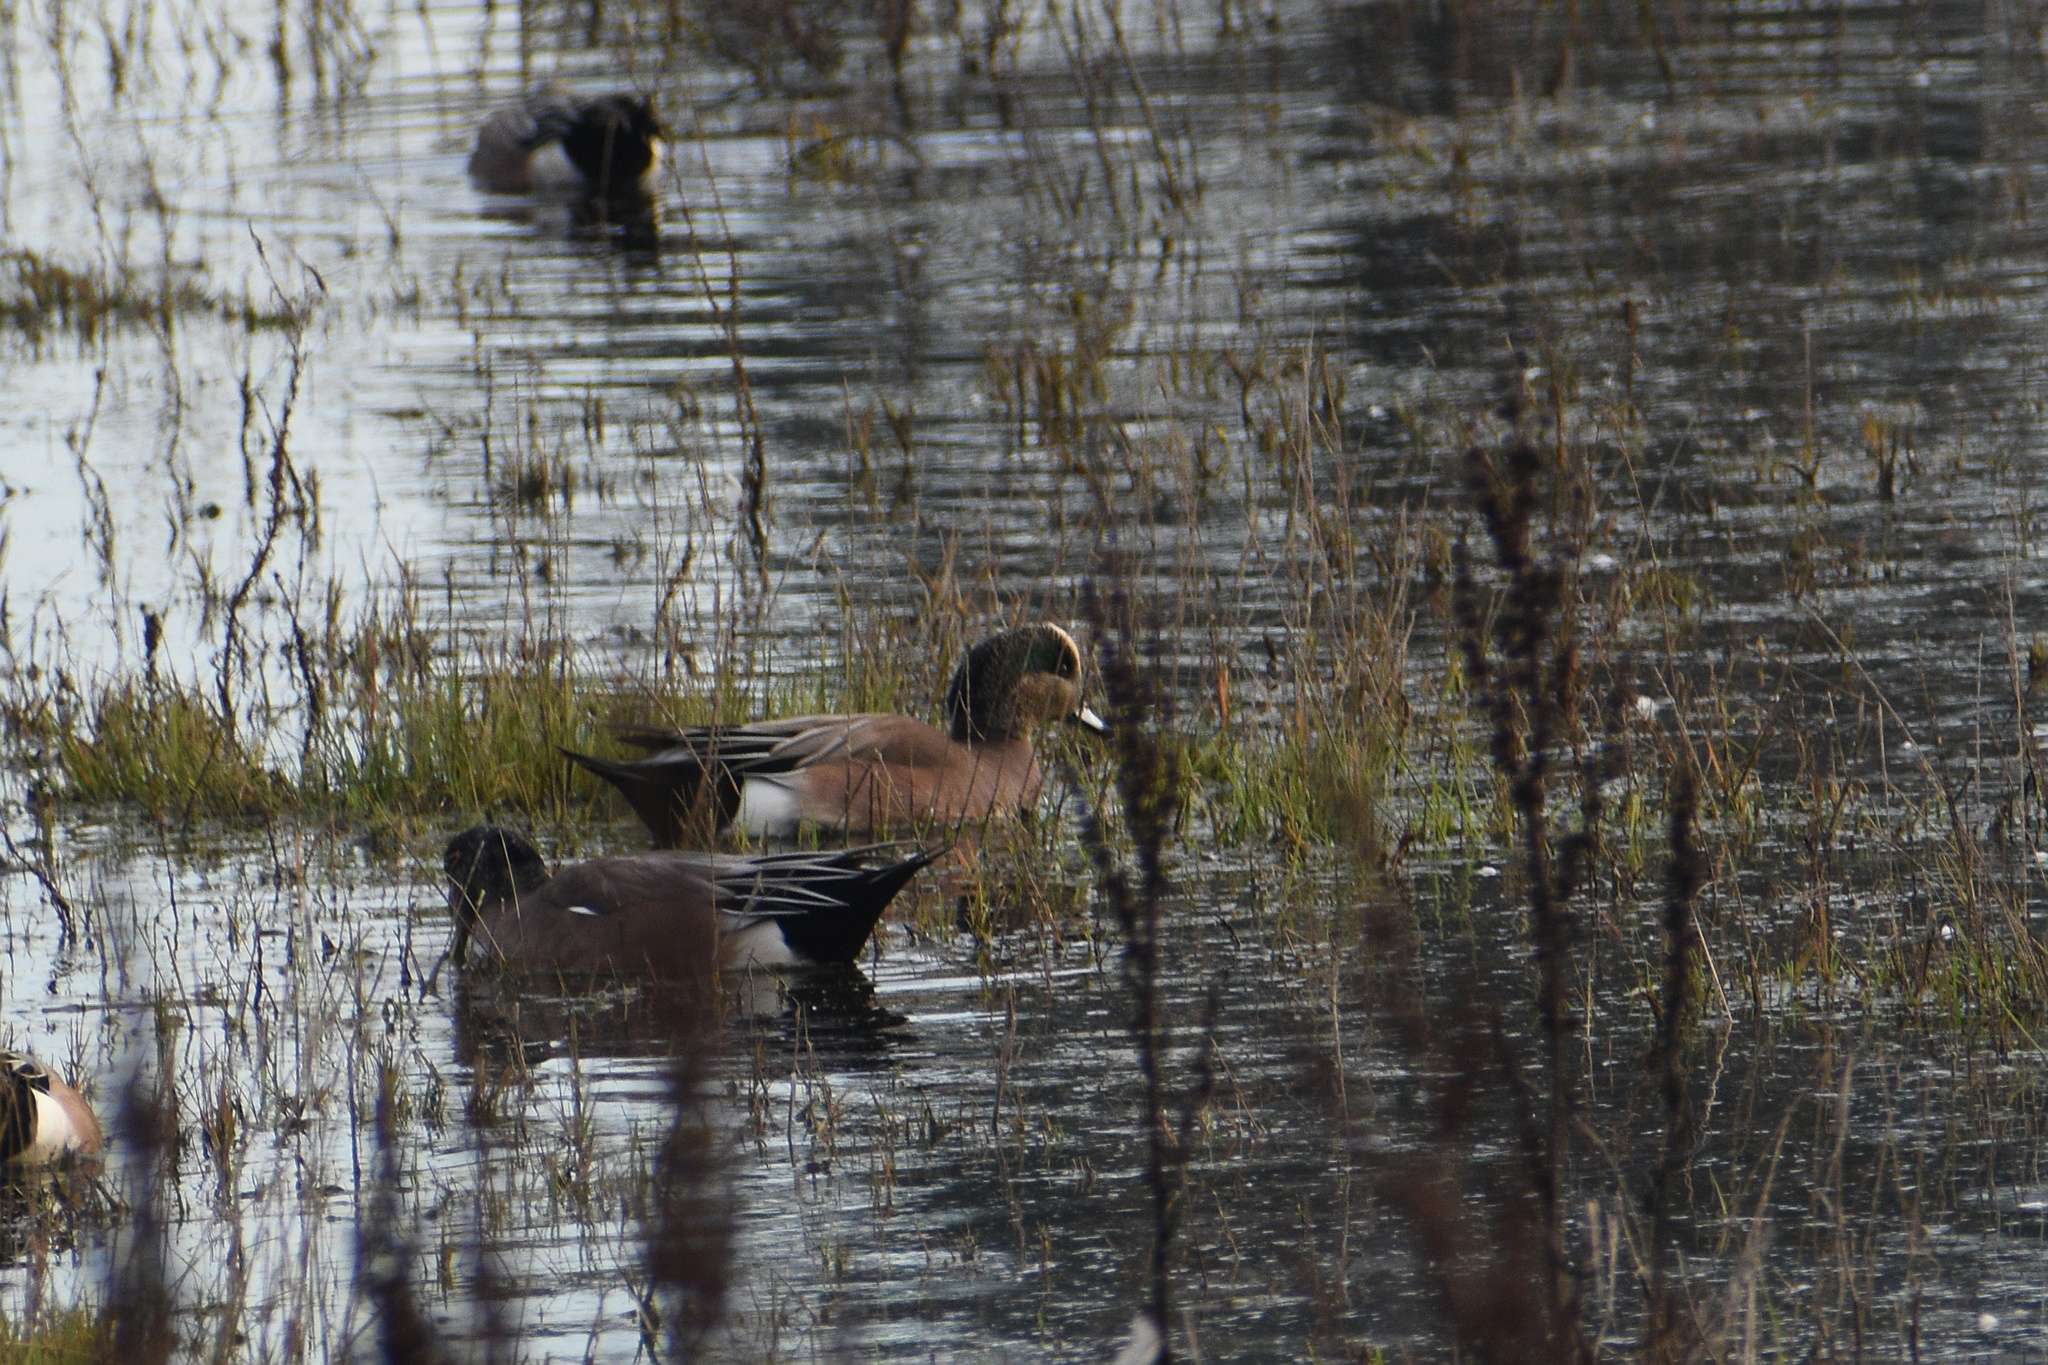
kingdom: Animalia
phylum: Chordata
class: Aves
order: Anseriformes
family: Anatidae
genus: Mareca
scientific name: Mareca americana
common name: American wigeon
